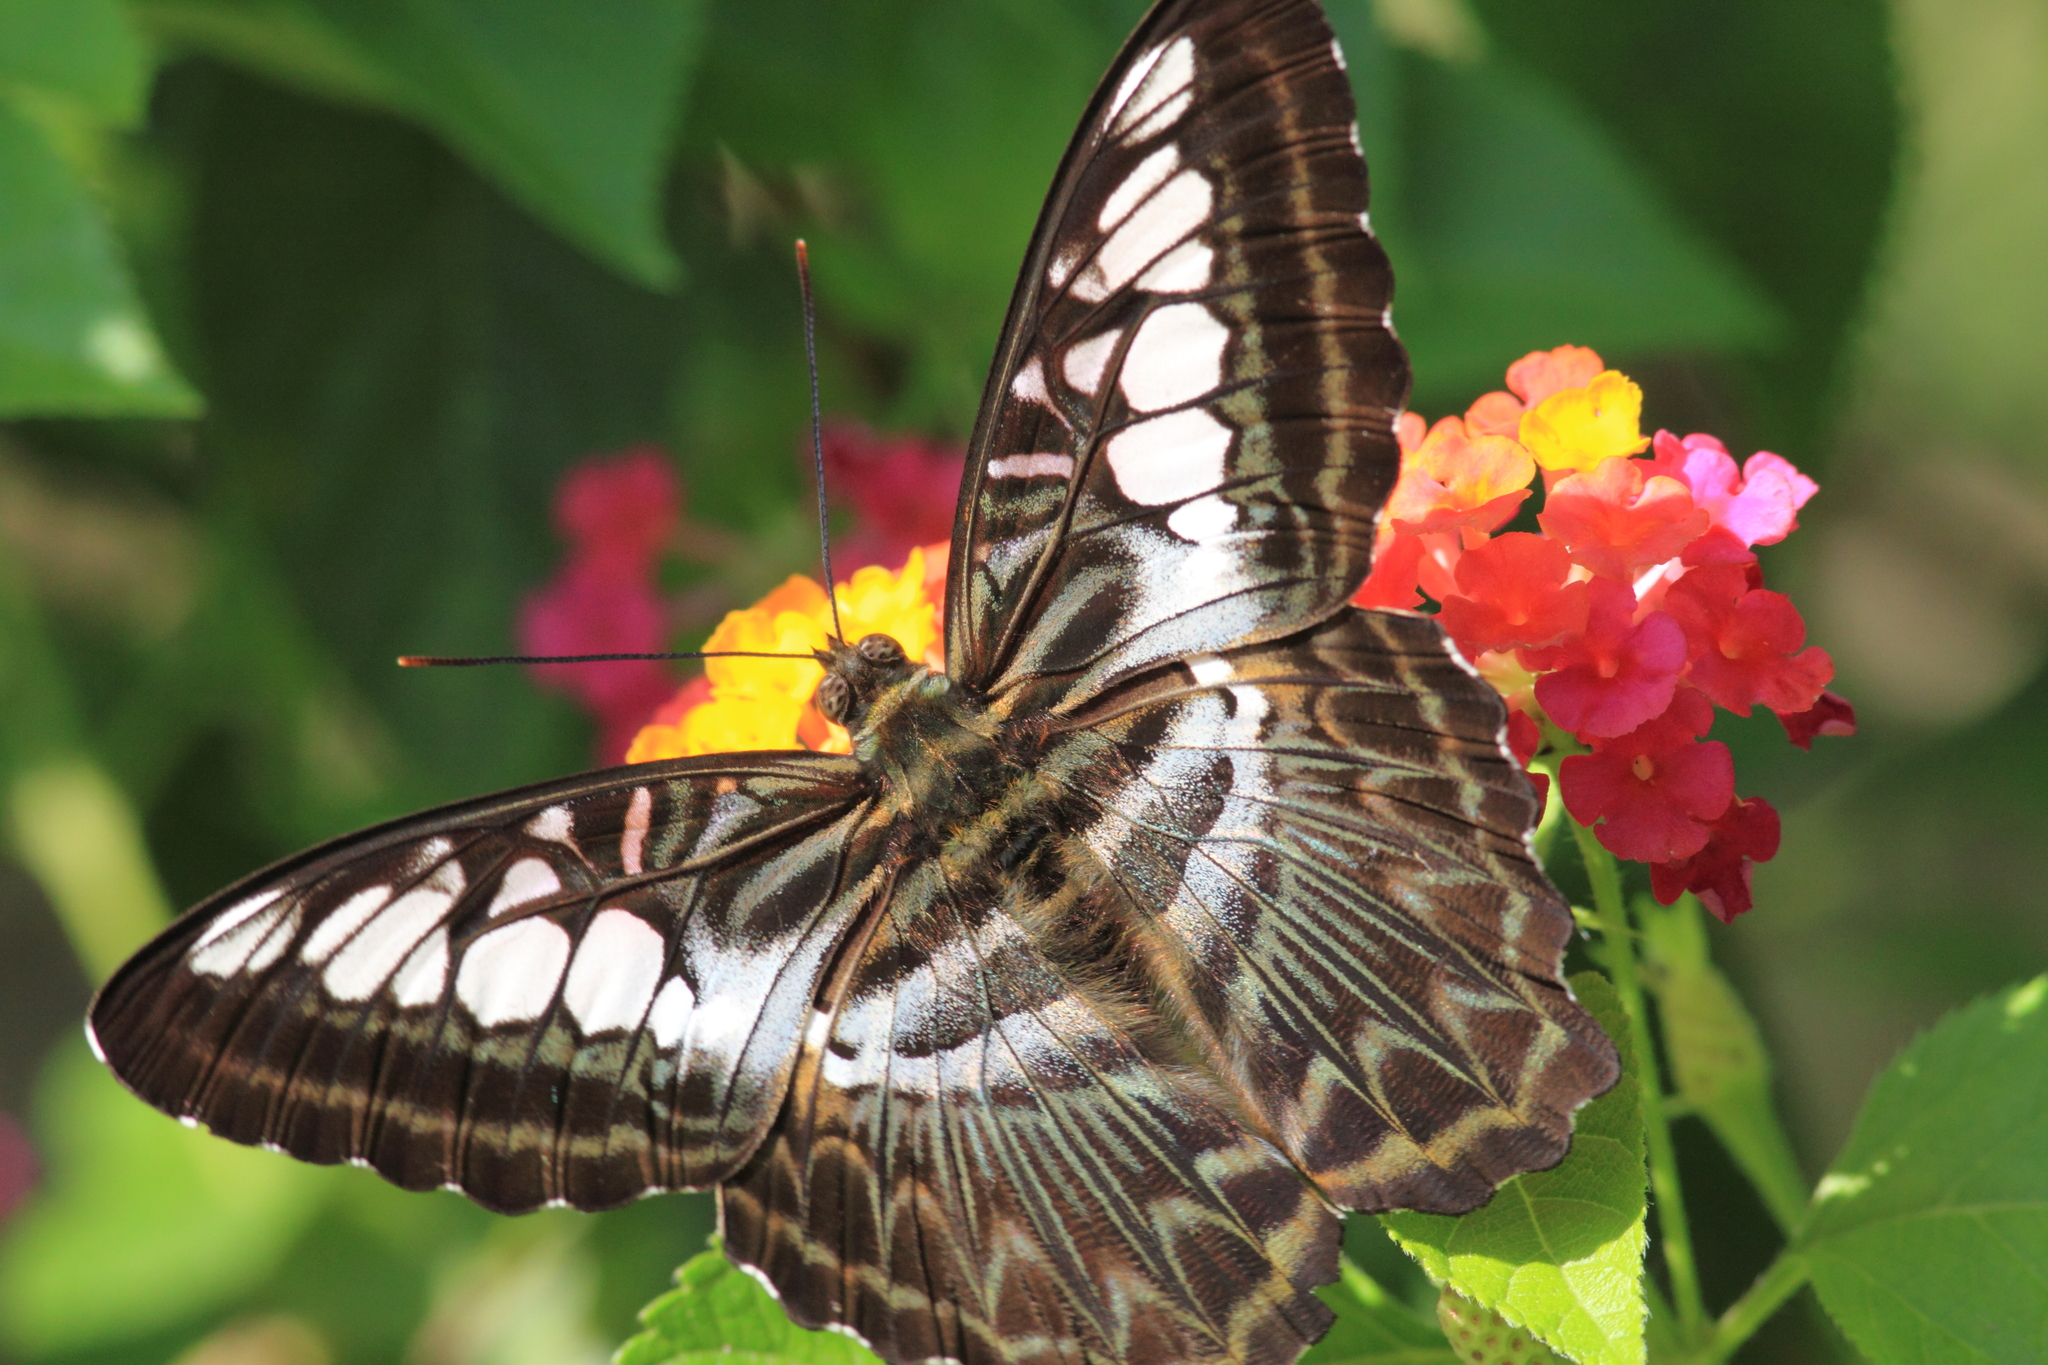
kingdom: Animalia
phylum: Arthropoda
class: Insecta
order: Lepidoptera
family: Nymphalidae
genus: Kallima
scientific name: Kallima sylvia
